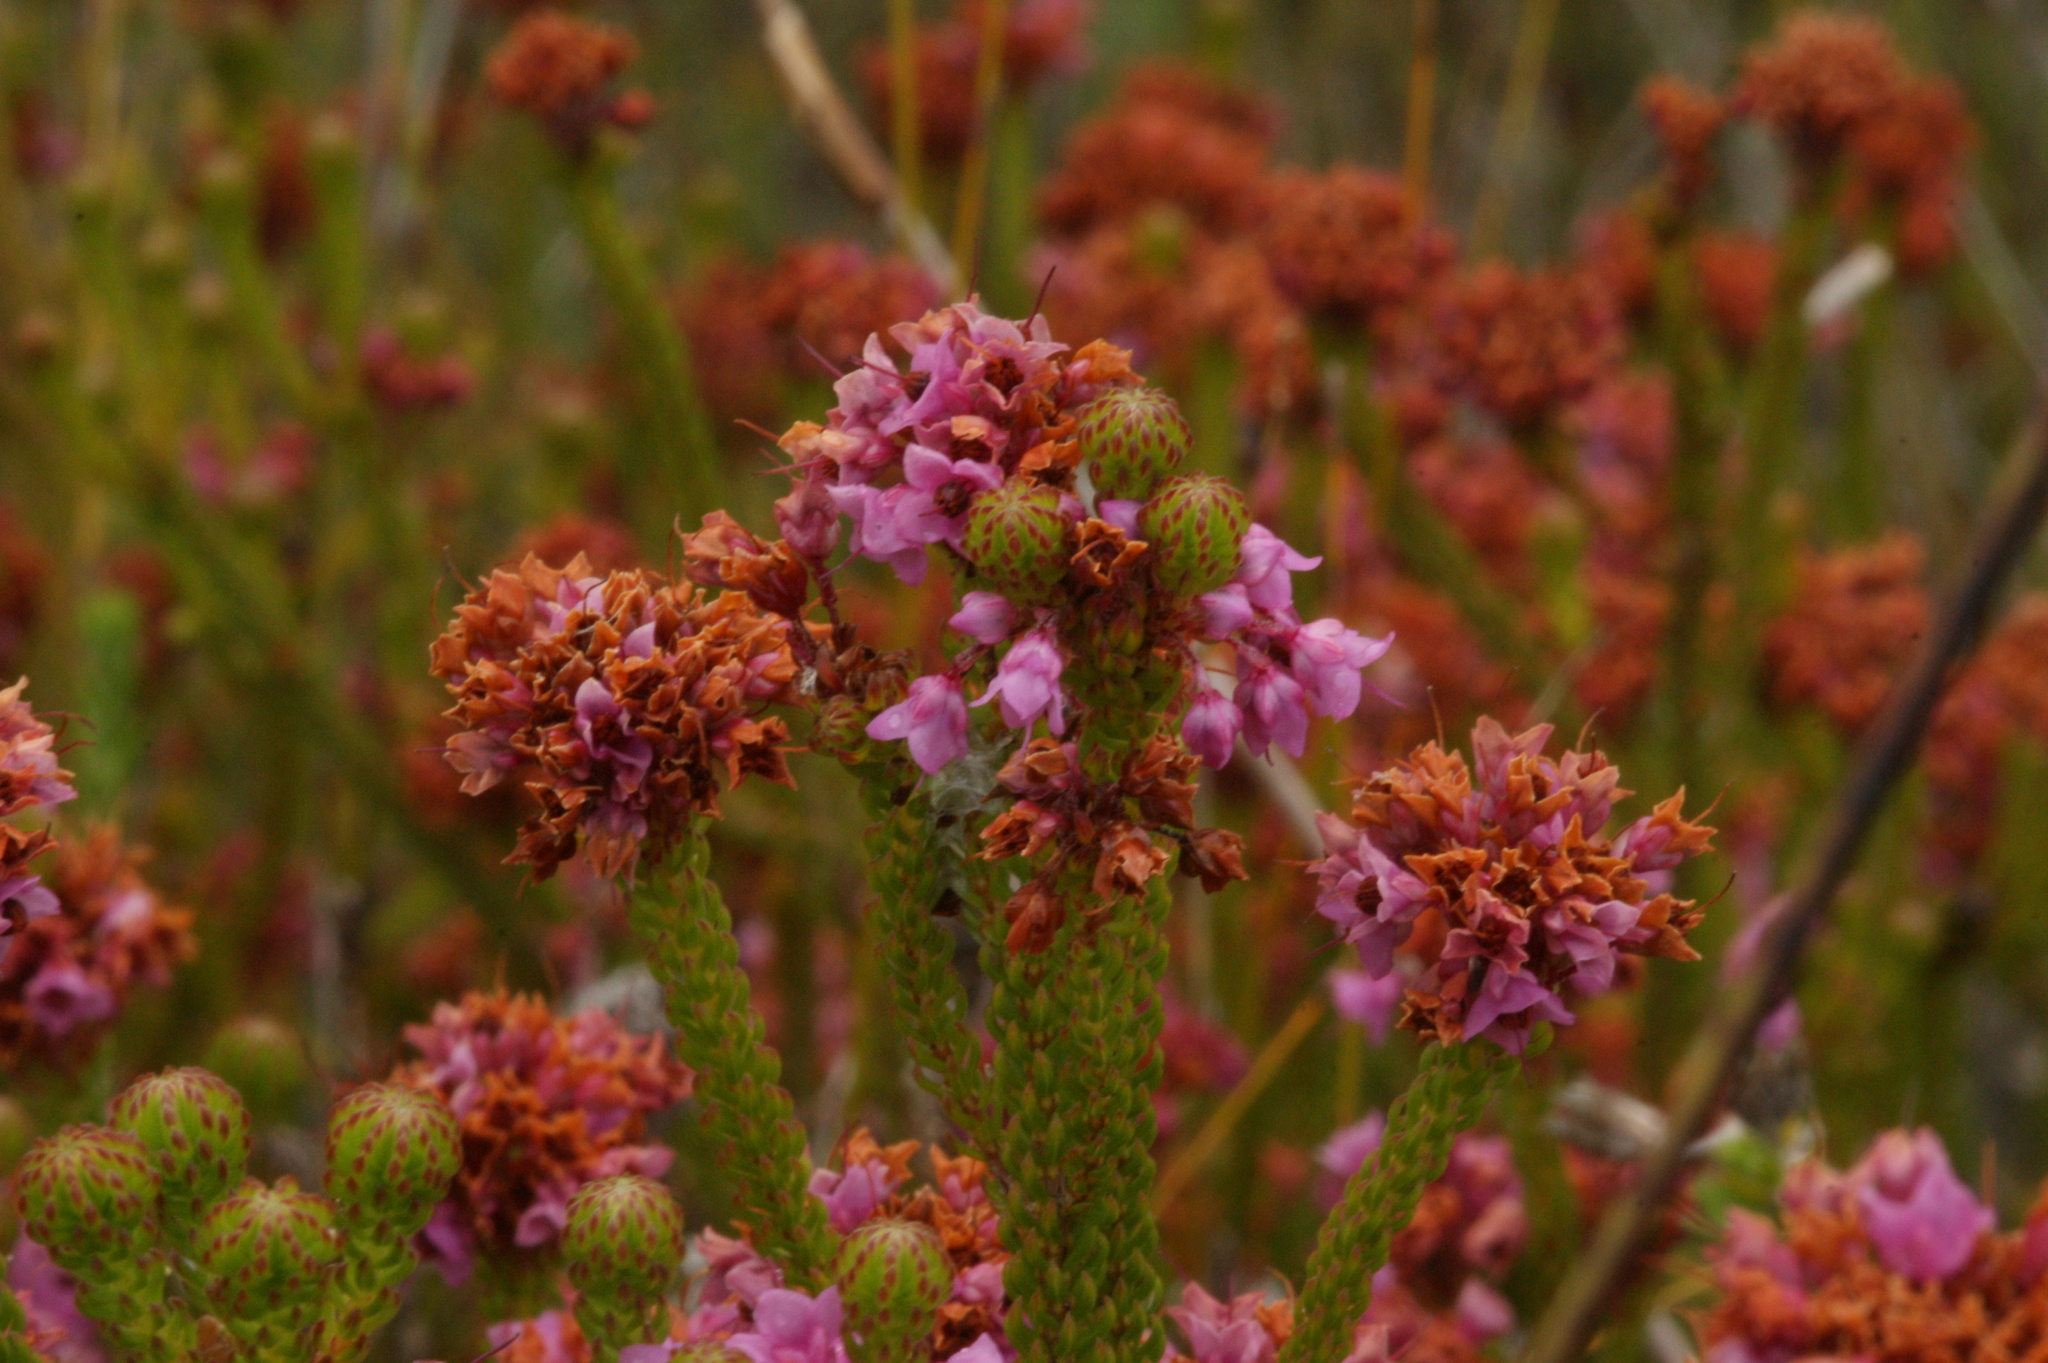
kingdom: Plantae
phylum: Tracheophyta
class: Magnoliopsida
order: Ericales
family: Ericaceae
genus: Erica
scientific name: Erica cubica
